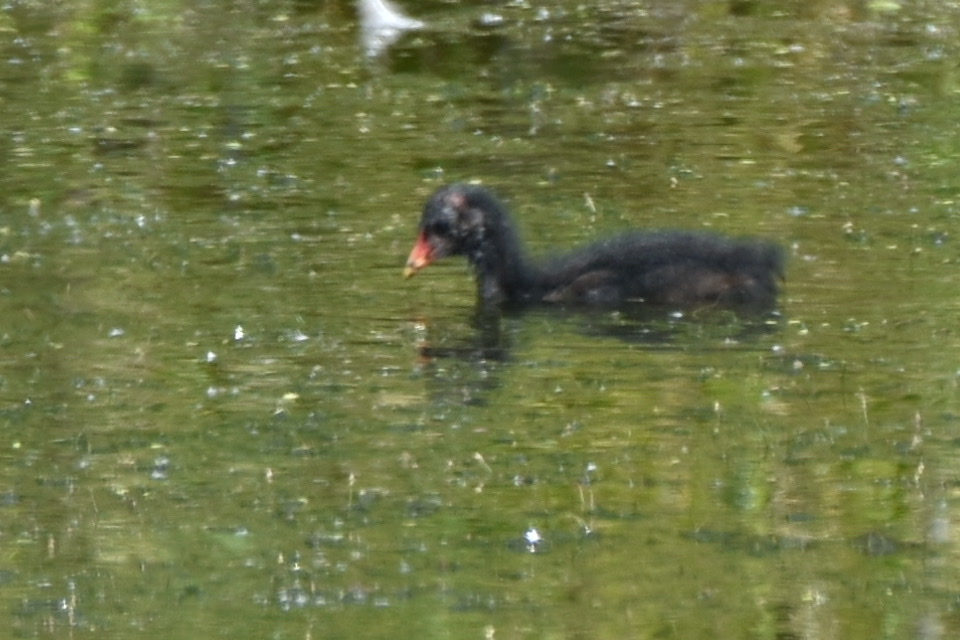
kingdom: Animalia
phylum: Chordata
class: Aves
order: Gruiformes
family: Rallidae
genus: Gallinula
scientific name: Gallinula chloropus
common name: Common moorhen
